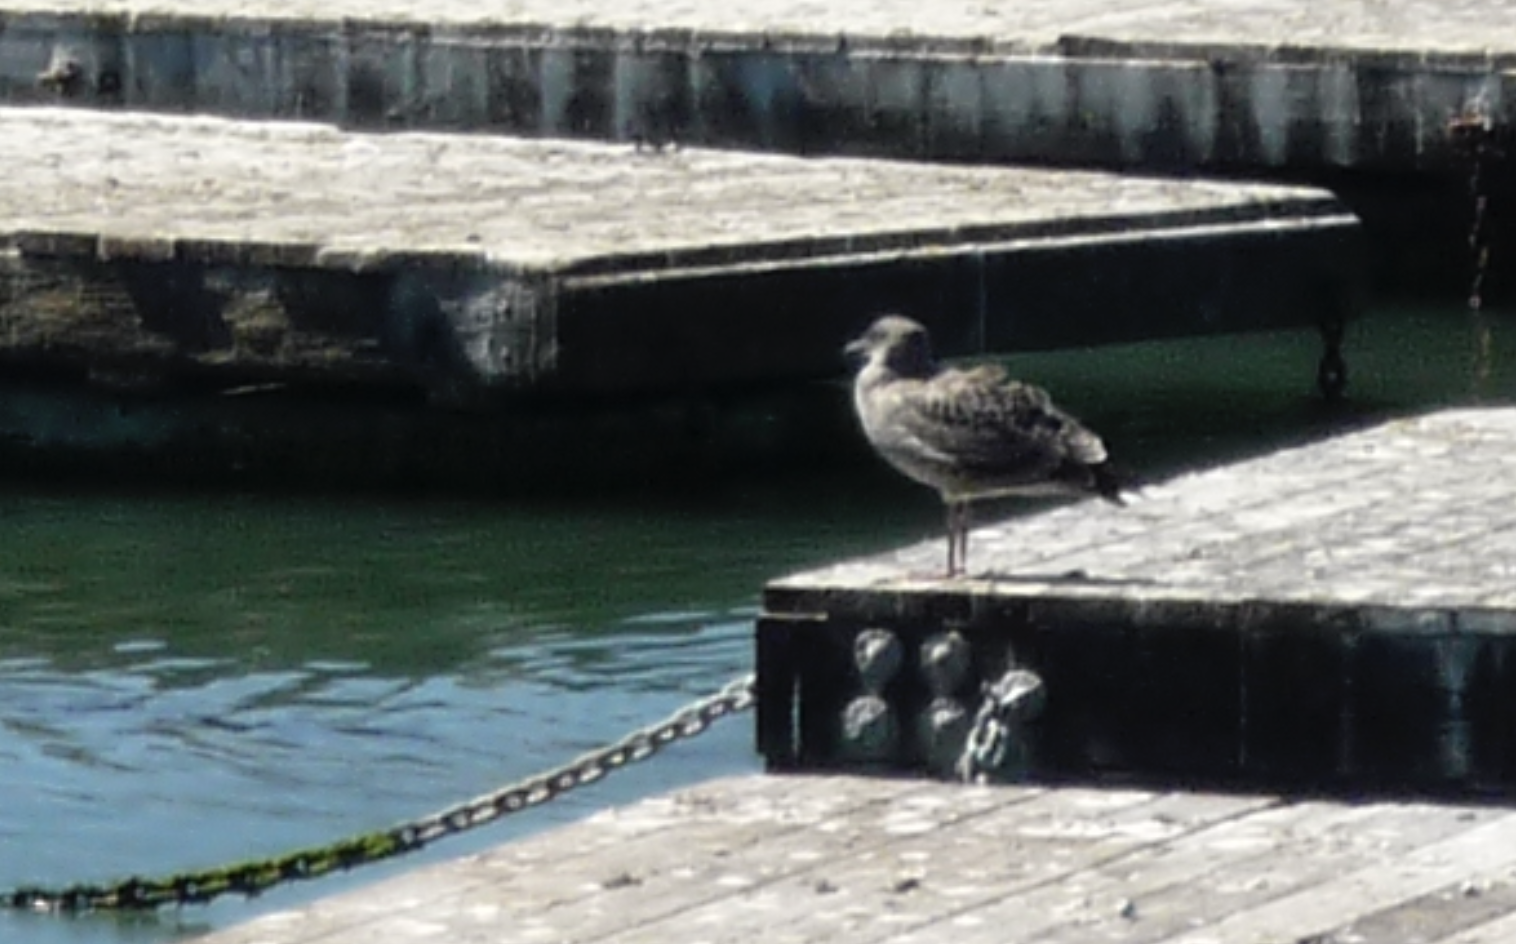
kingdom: Animalia
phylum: Chordata
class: Aves
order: Charadriiformes
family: Laridae
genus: Larus
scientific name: Larus occidentalis
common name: Western gull
